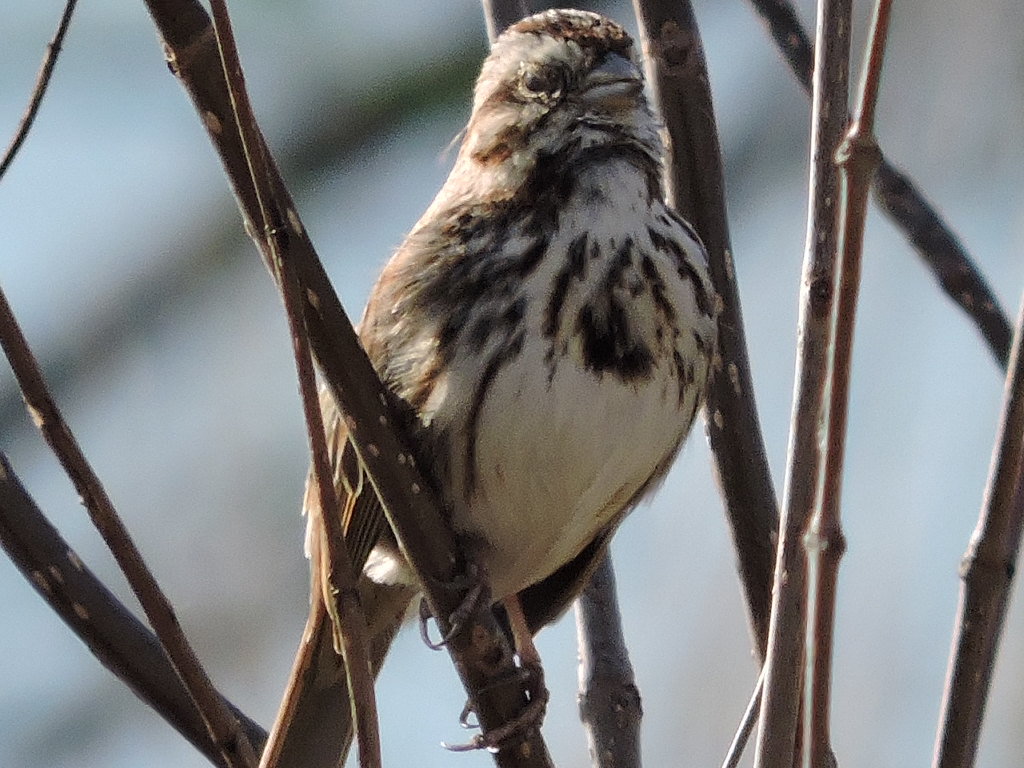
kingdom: Animalia
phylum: Chordata
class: Aves
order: Passeriformes
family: Passerellidae
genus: Melospiza
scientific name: Melospiza melodia
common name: Song sparrow
